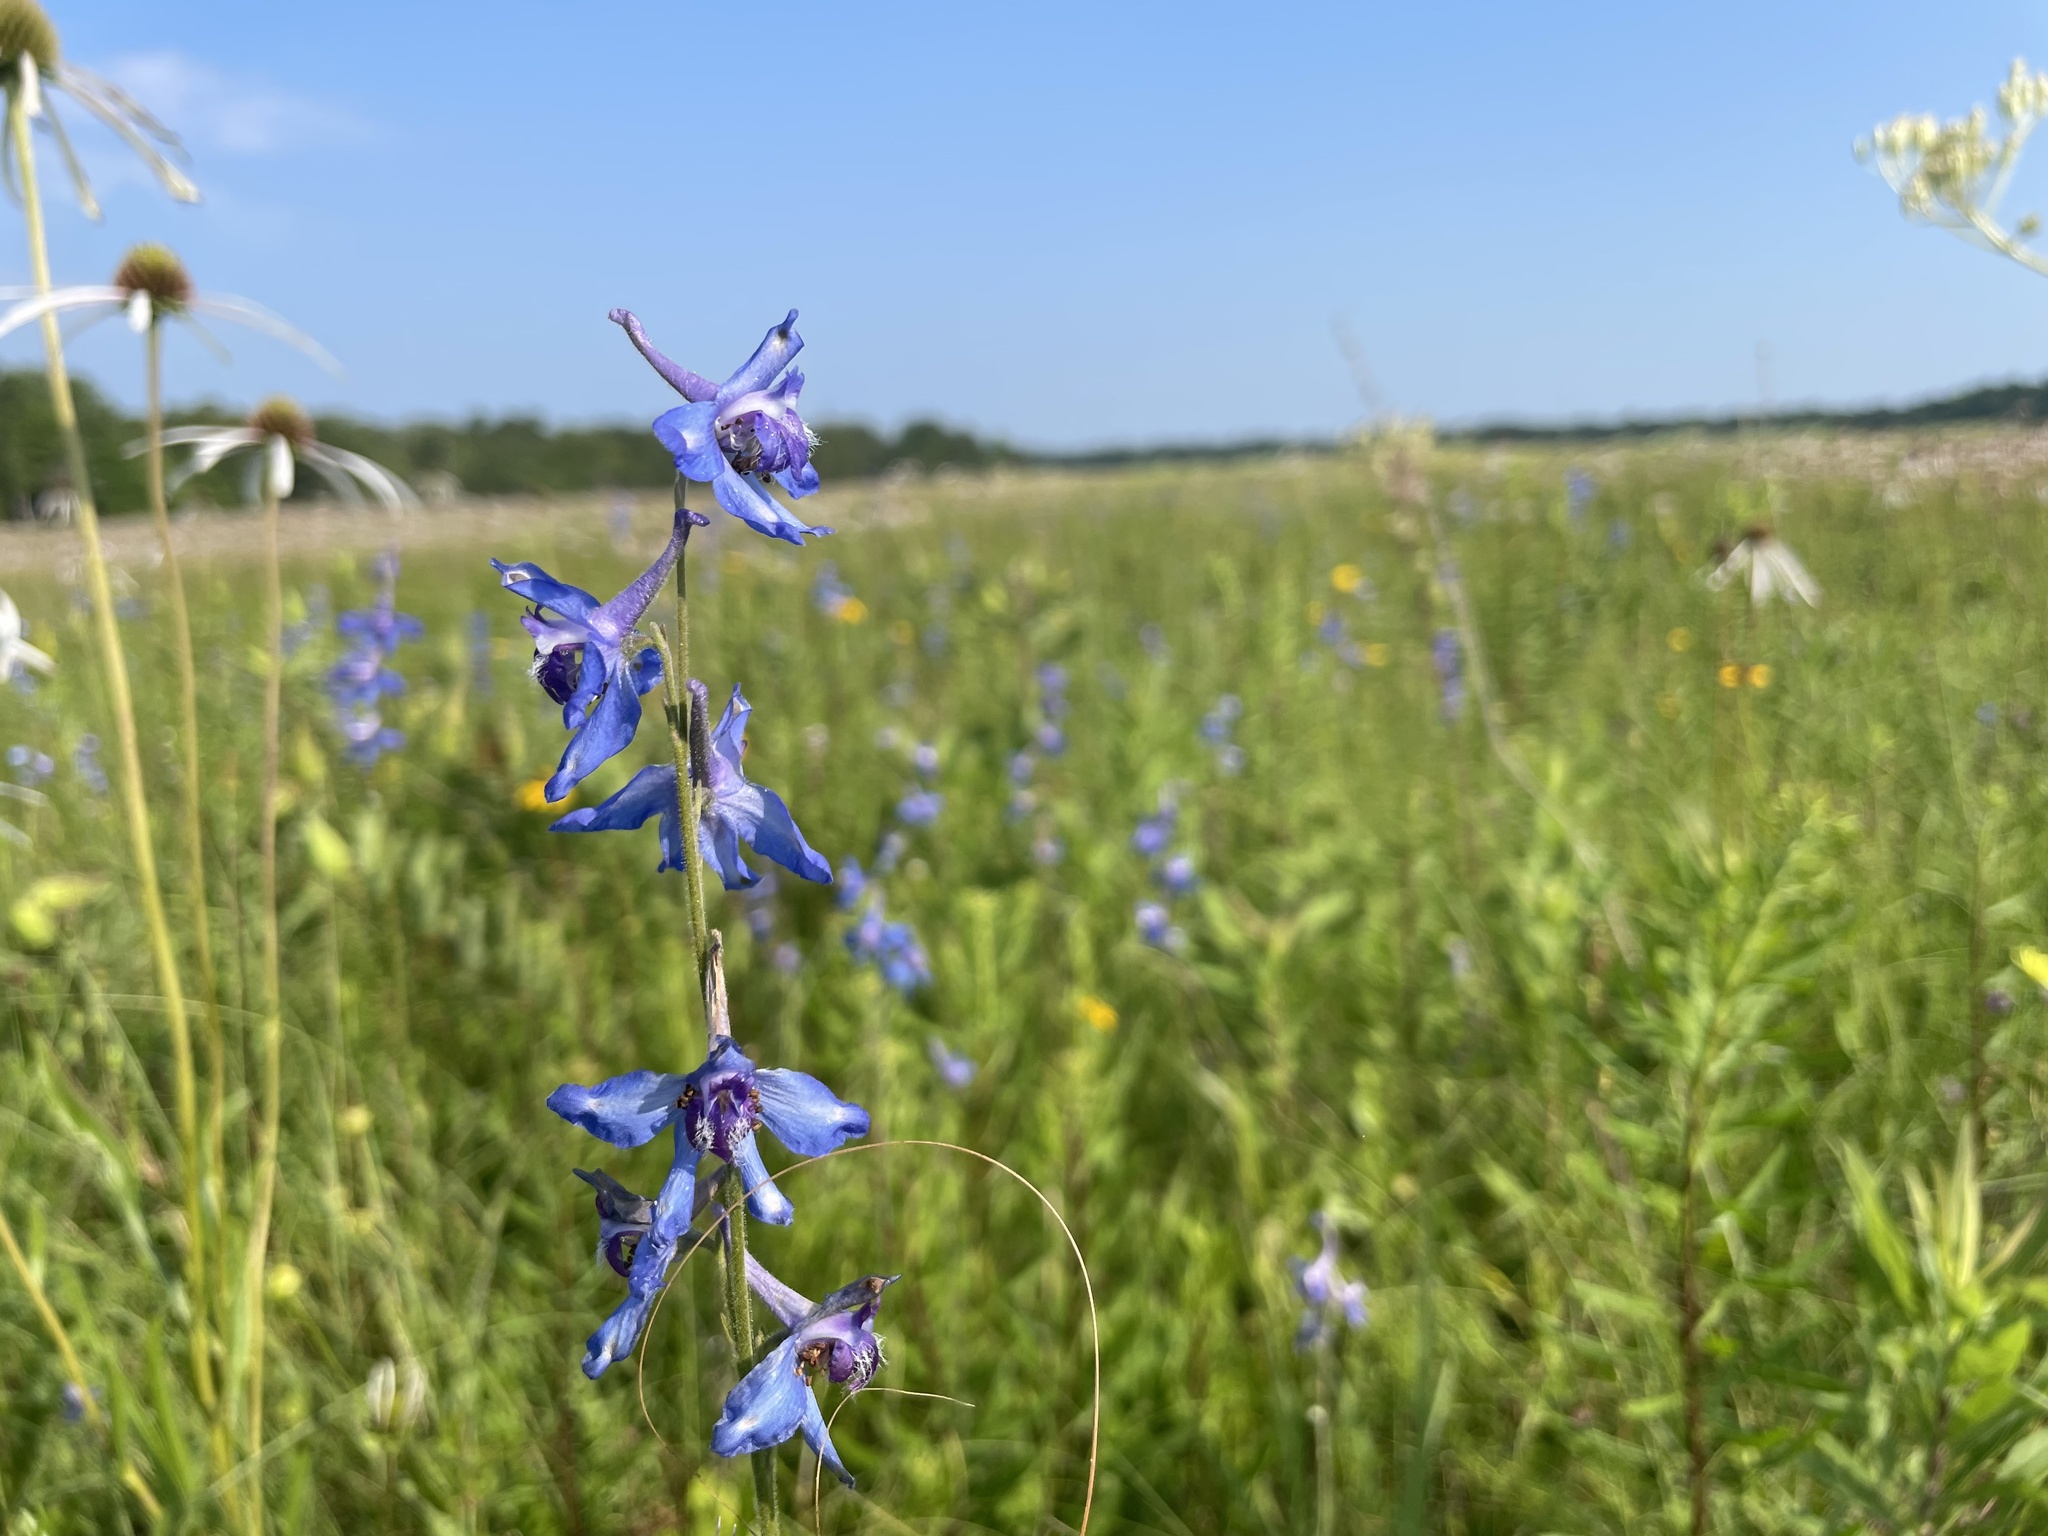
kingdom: Plantae
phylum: Tracheophyta
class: Magnoliopsida
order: Ranunculales
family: Ranunculaceae
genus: Delphinium
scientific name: Delphinium carolinianum
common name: Carolina larkspur
